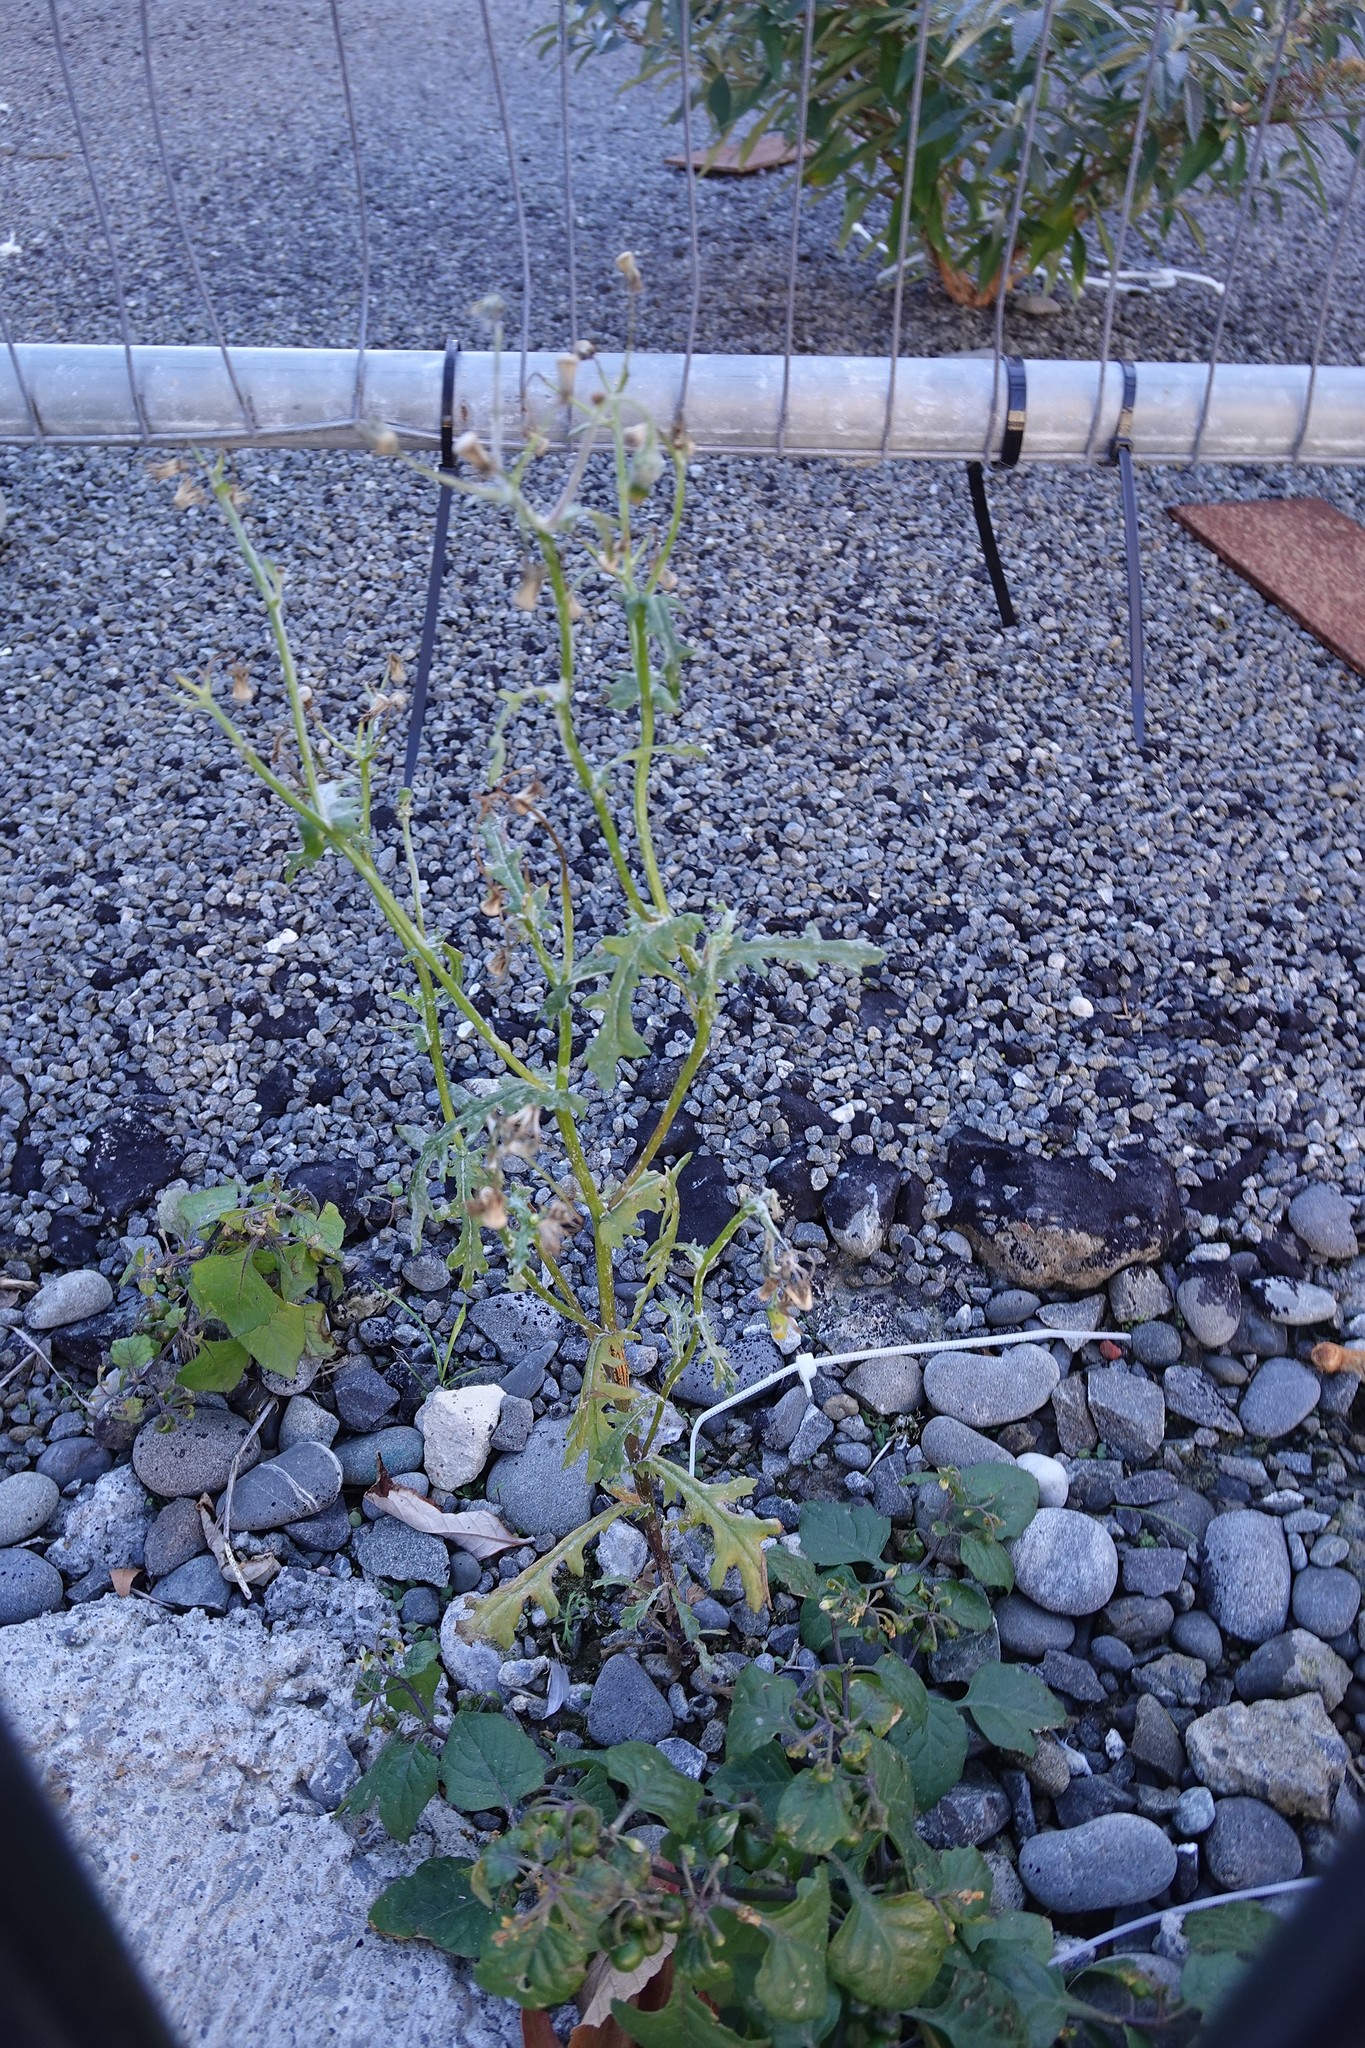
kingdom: Plantae
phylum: Tracheophyta
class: Magnoliopsida
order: Asterales
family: Asteraceae
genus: Senecio
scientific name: Senecio vulgaris
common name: Old-man-in-the-spring
